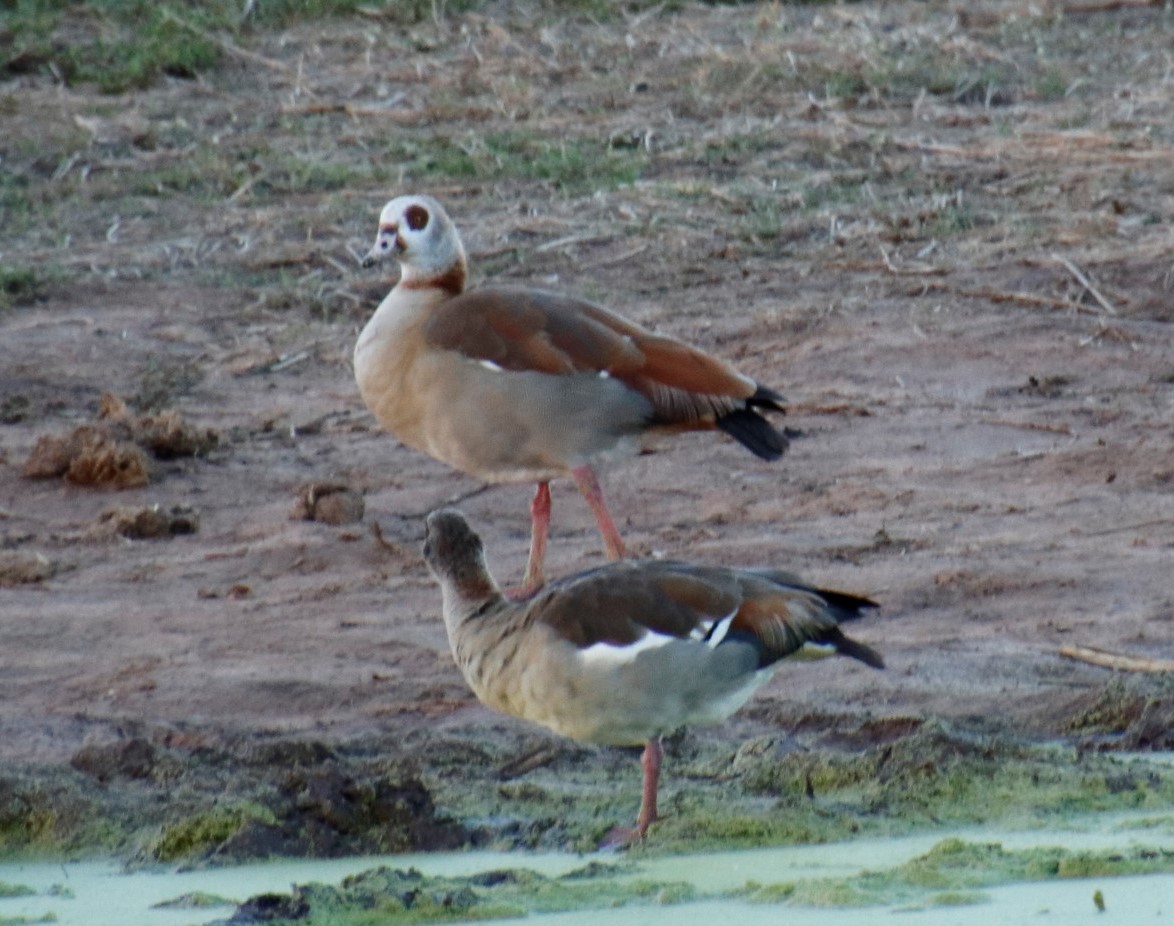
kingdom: Animalia
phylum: Chordata
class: Aves
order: Anseriformes
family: Anatidae
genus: Alopochen
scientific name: Alopochen aegyptiaca
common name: Egyptian goose
